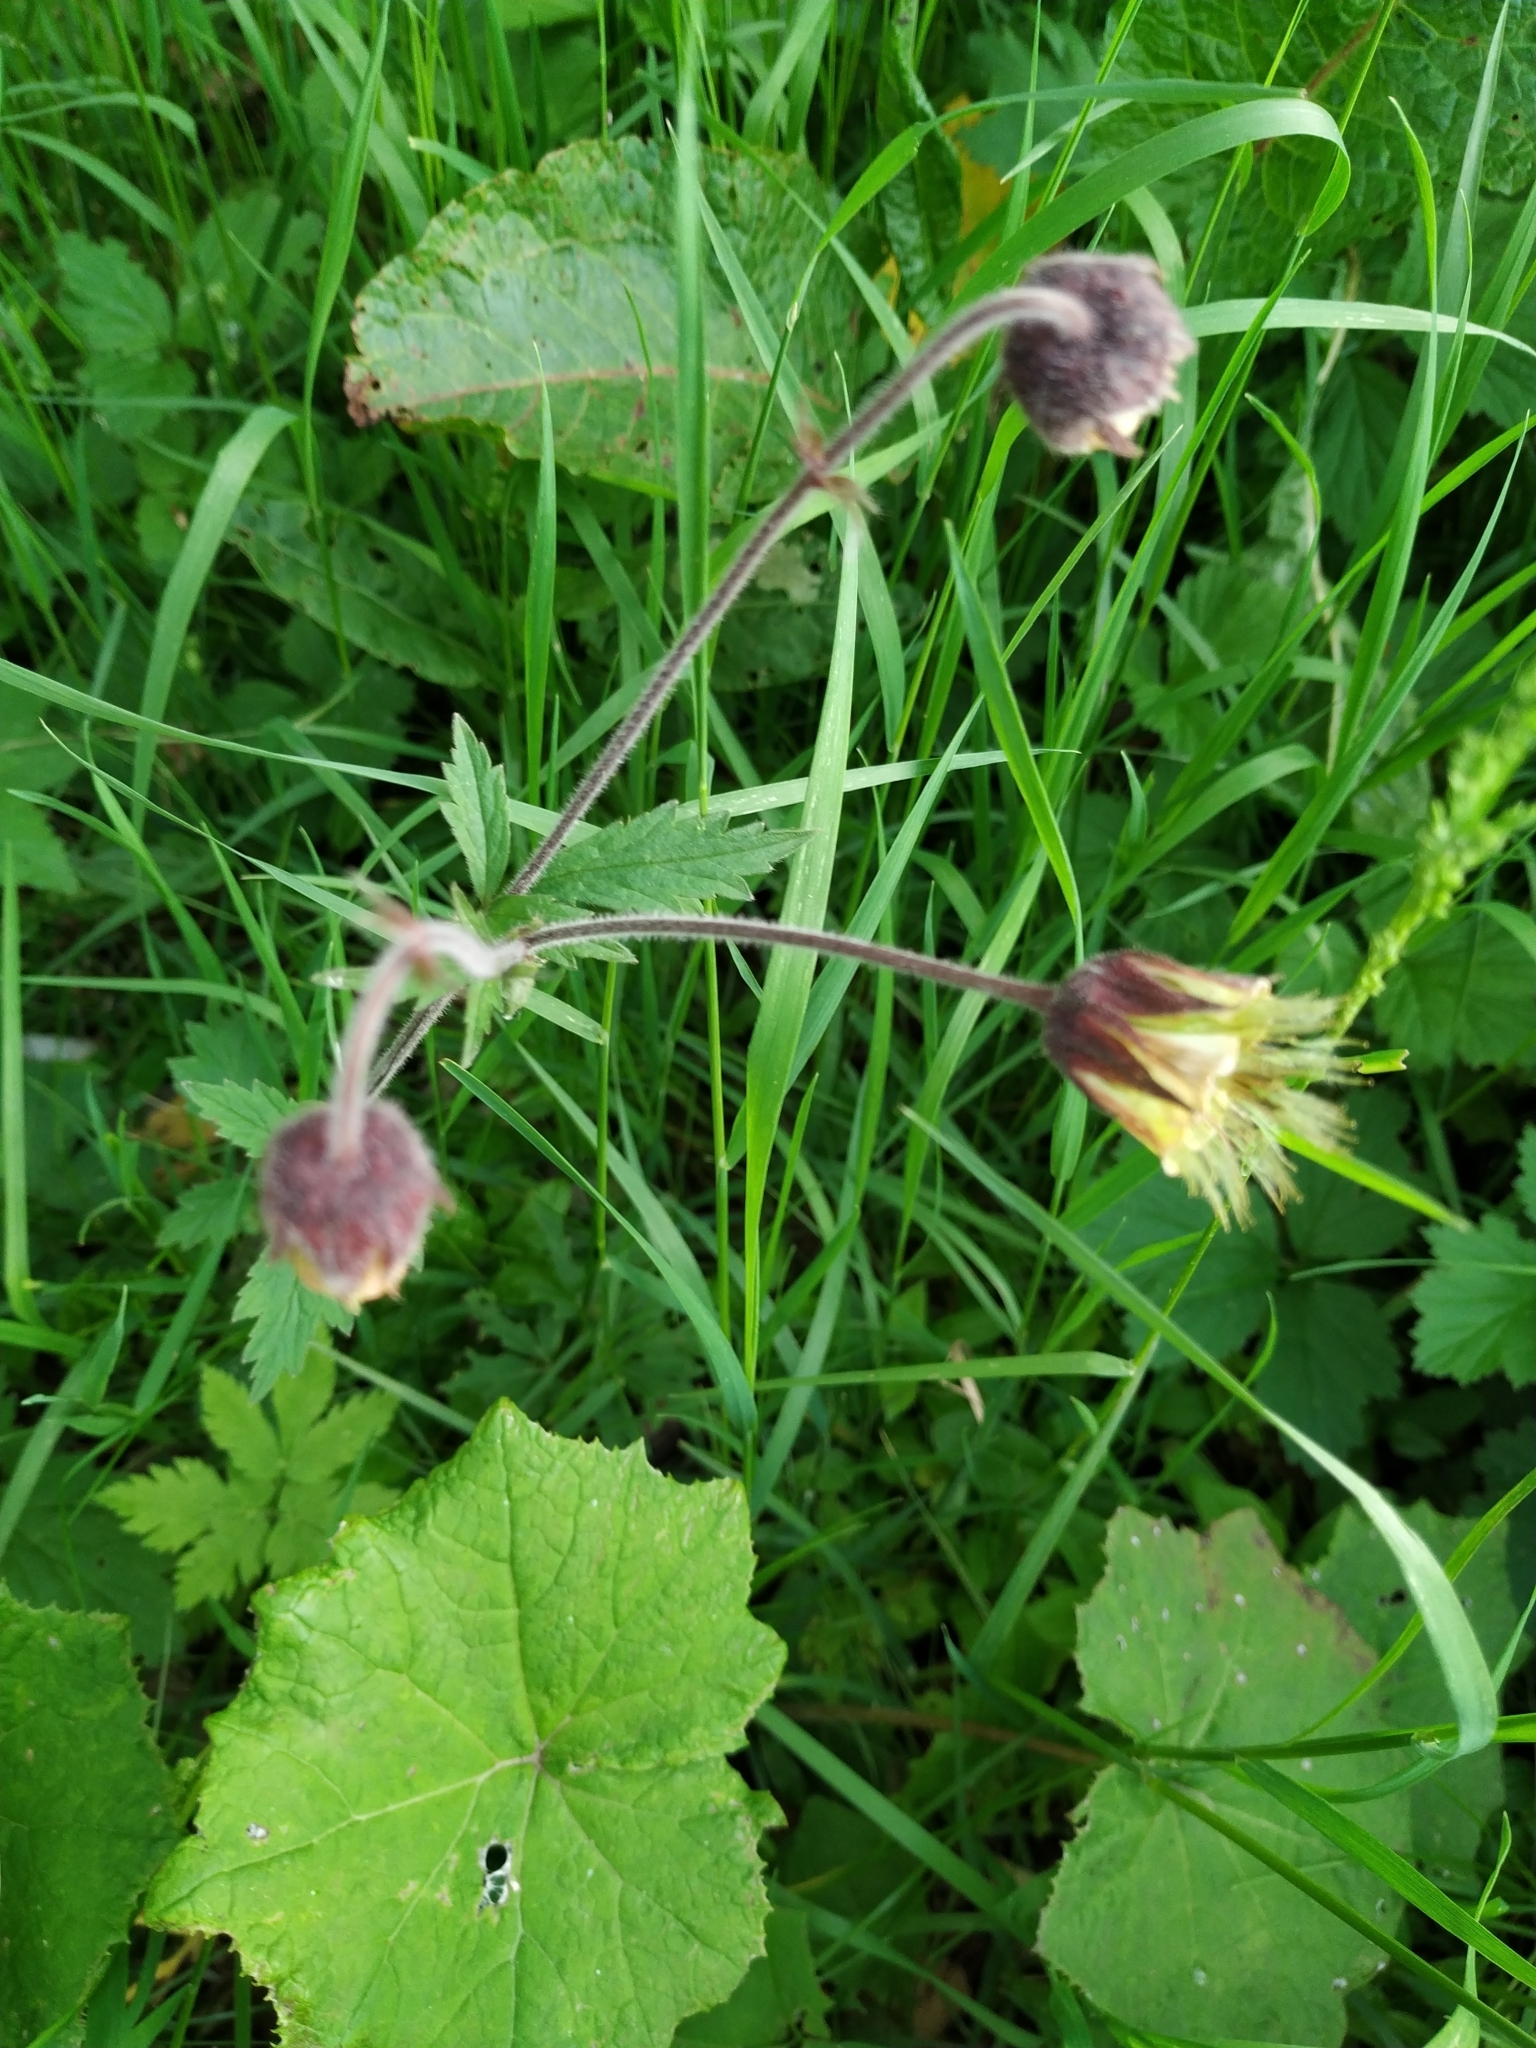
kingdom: Plantae
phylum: Tracheophyta
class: Magnoliopsida
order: Rosales
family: Rosaceae
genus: Geum
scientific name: Geum rivale
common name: Water avens
